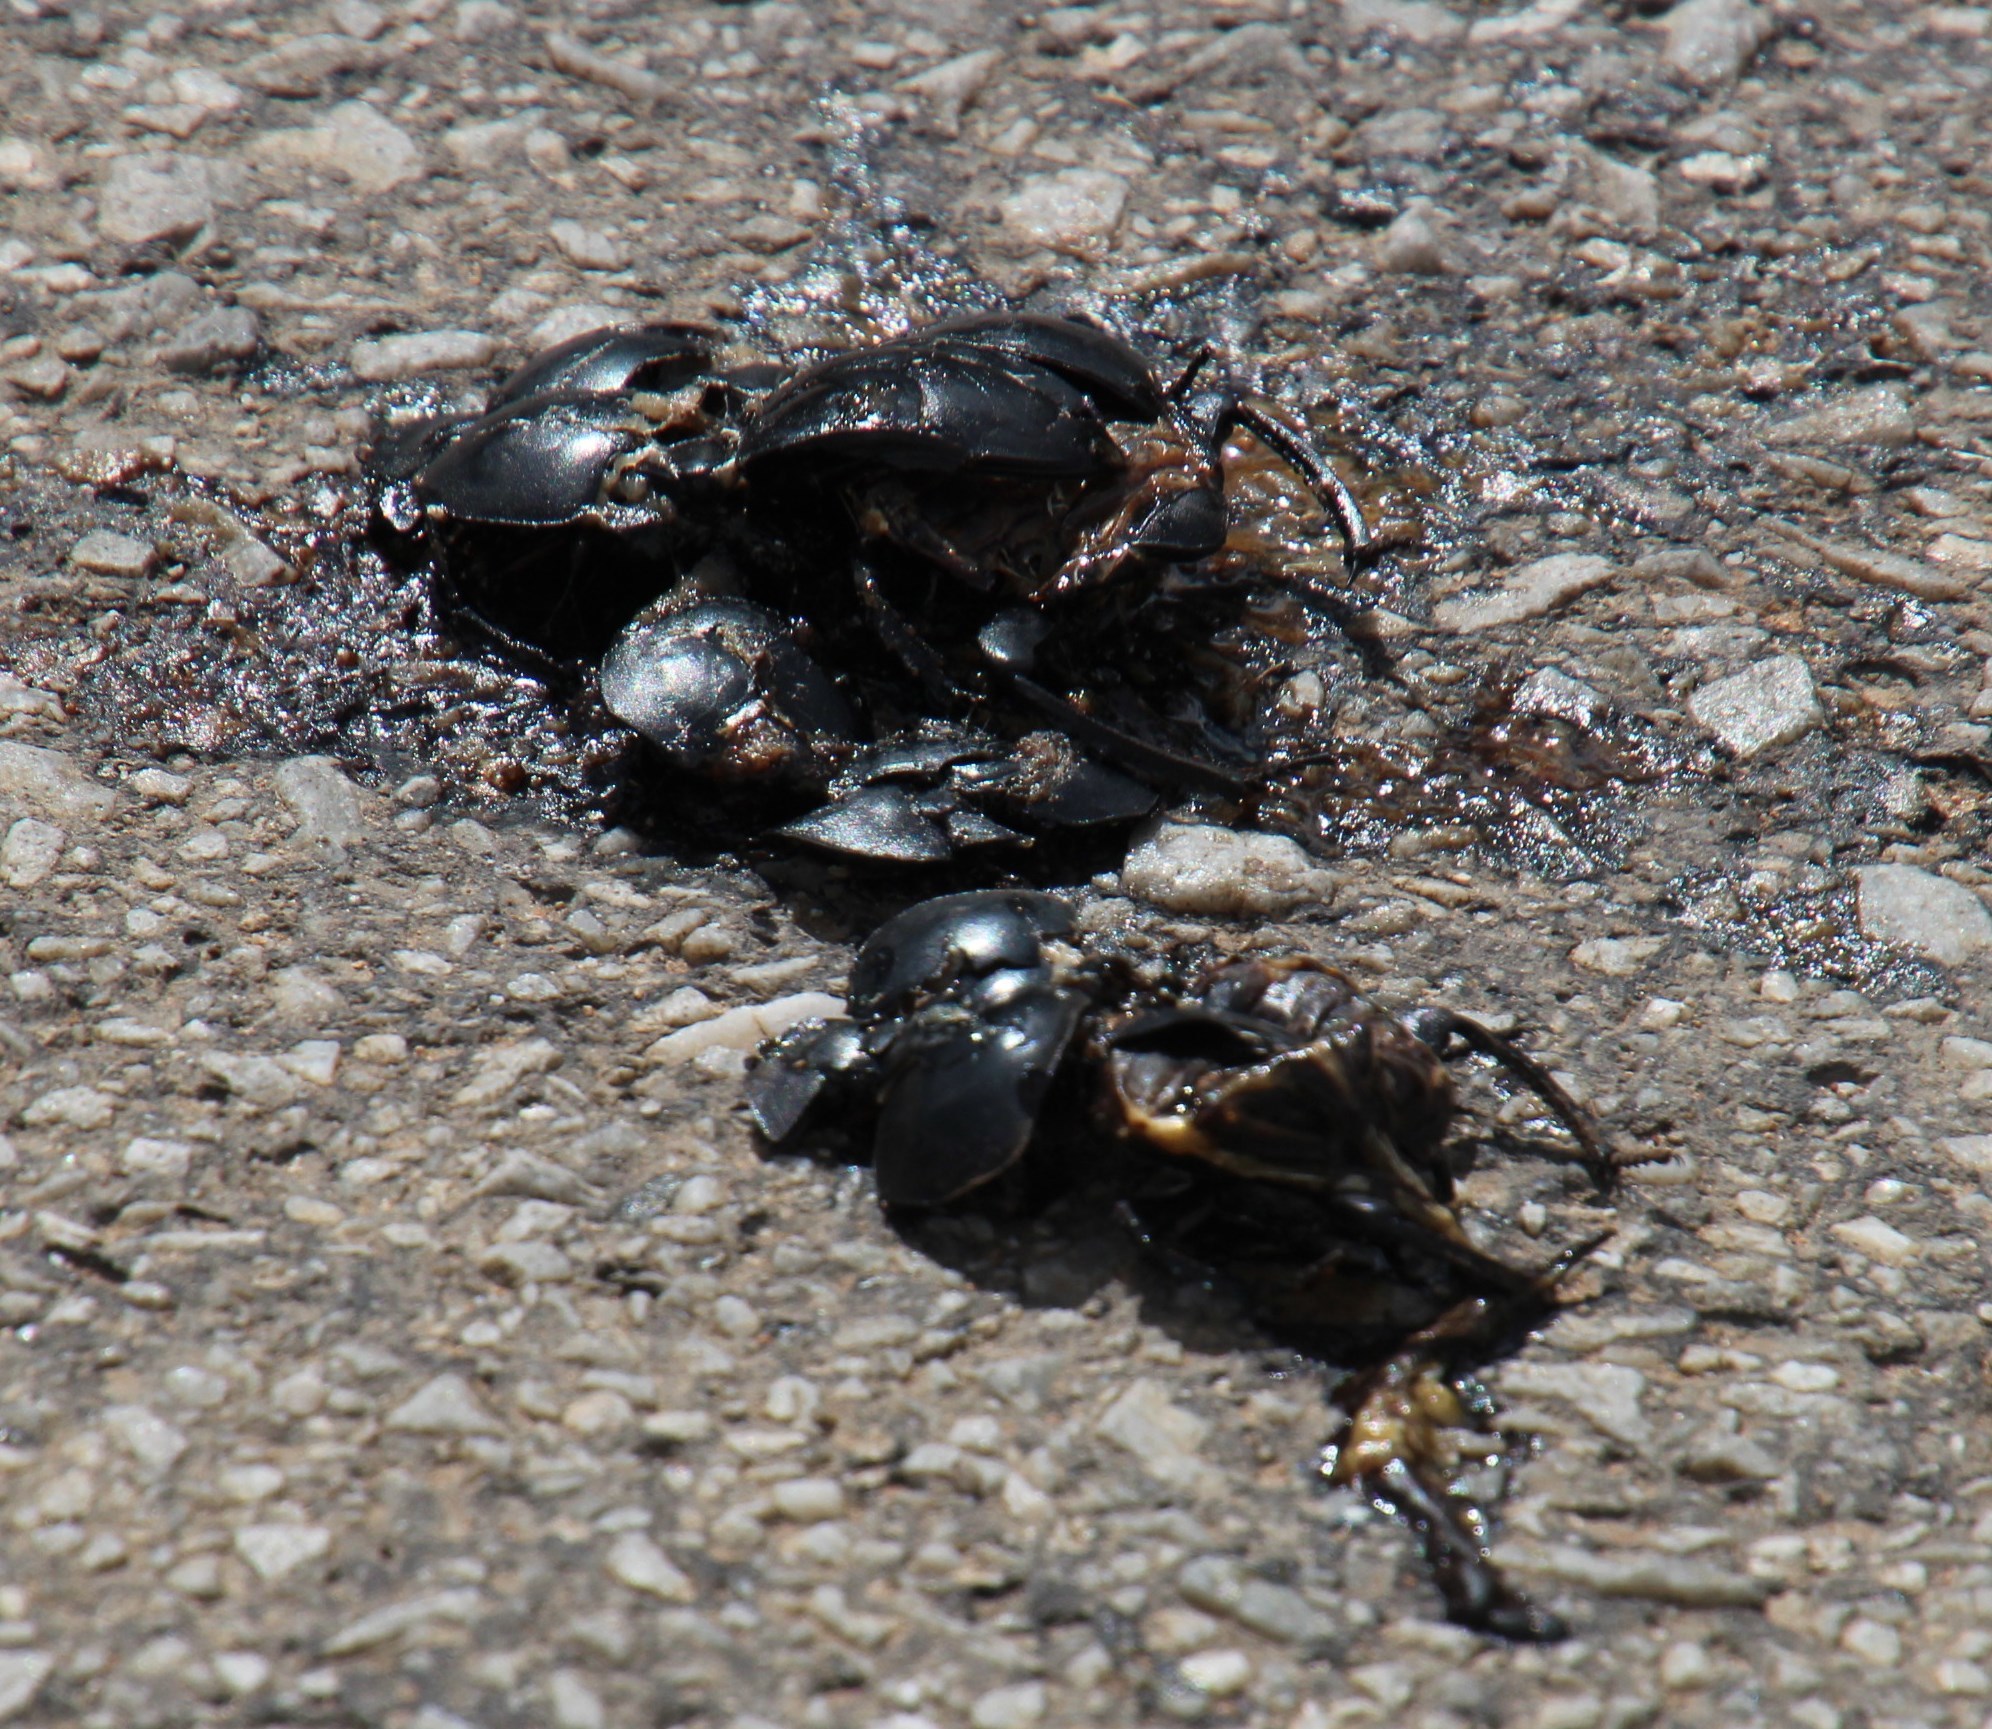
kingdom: Animalia
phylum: Arthropoda
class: Insecta
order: Coleoptera
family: Scarabaeidae
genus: Circellium
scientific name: Circellium bacchus
